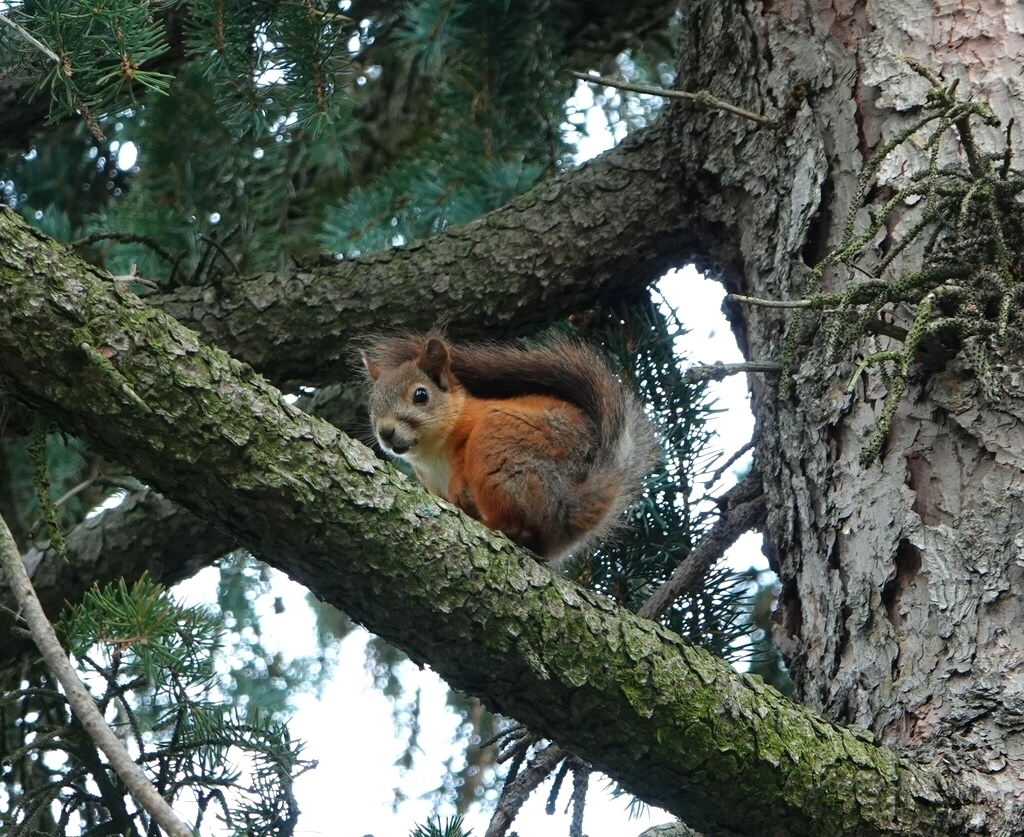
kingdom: Animalia
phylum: Chordata
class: Mammalia
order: Rodentia
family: Sciuridae
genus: Sciurus
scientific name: Sciurus vulgaris
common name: Eurasian red squirrel
